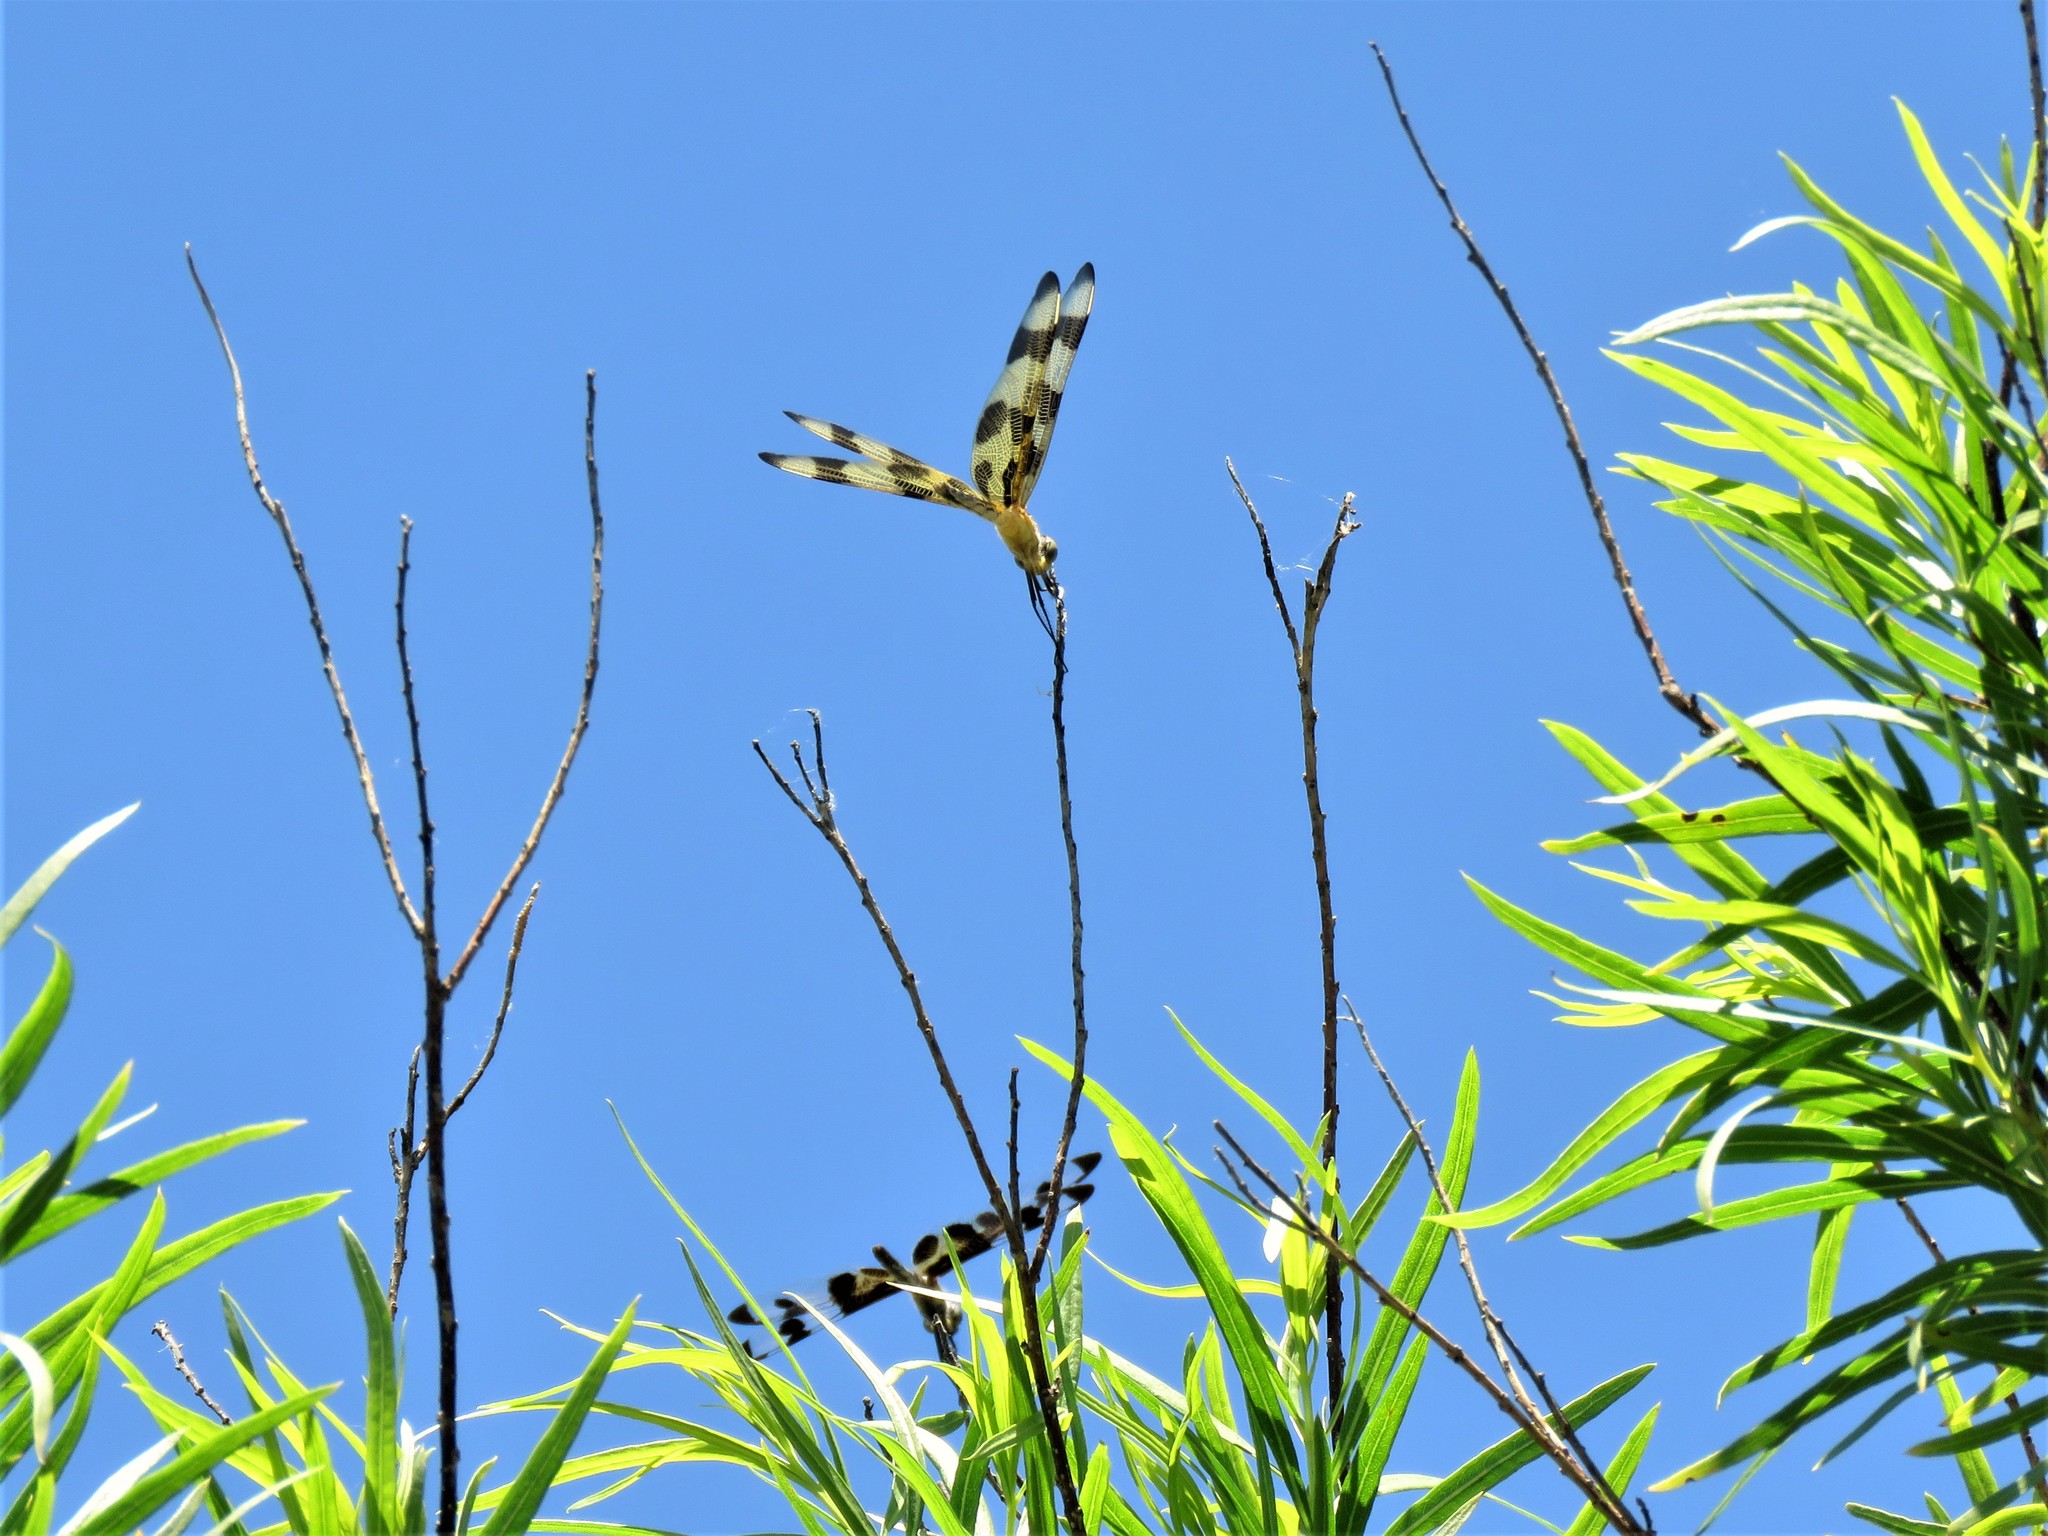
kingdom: Animalia
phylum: Arthropoda
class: Insecta
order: Odonata
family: Libellulidae
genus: Celithemis
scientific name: Celithemis eponina
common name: Halloween pennant
